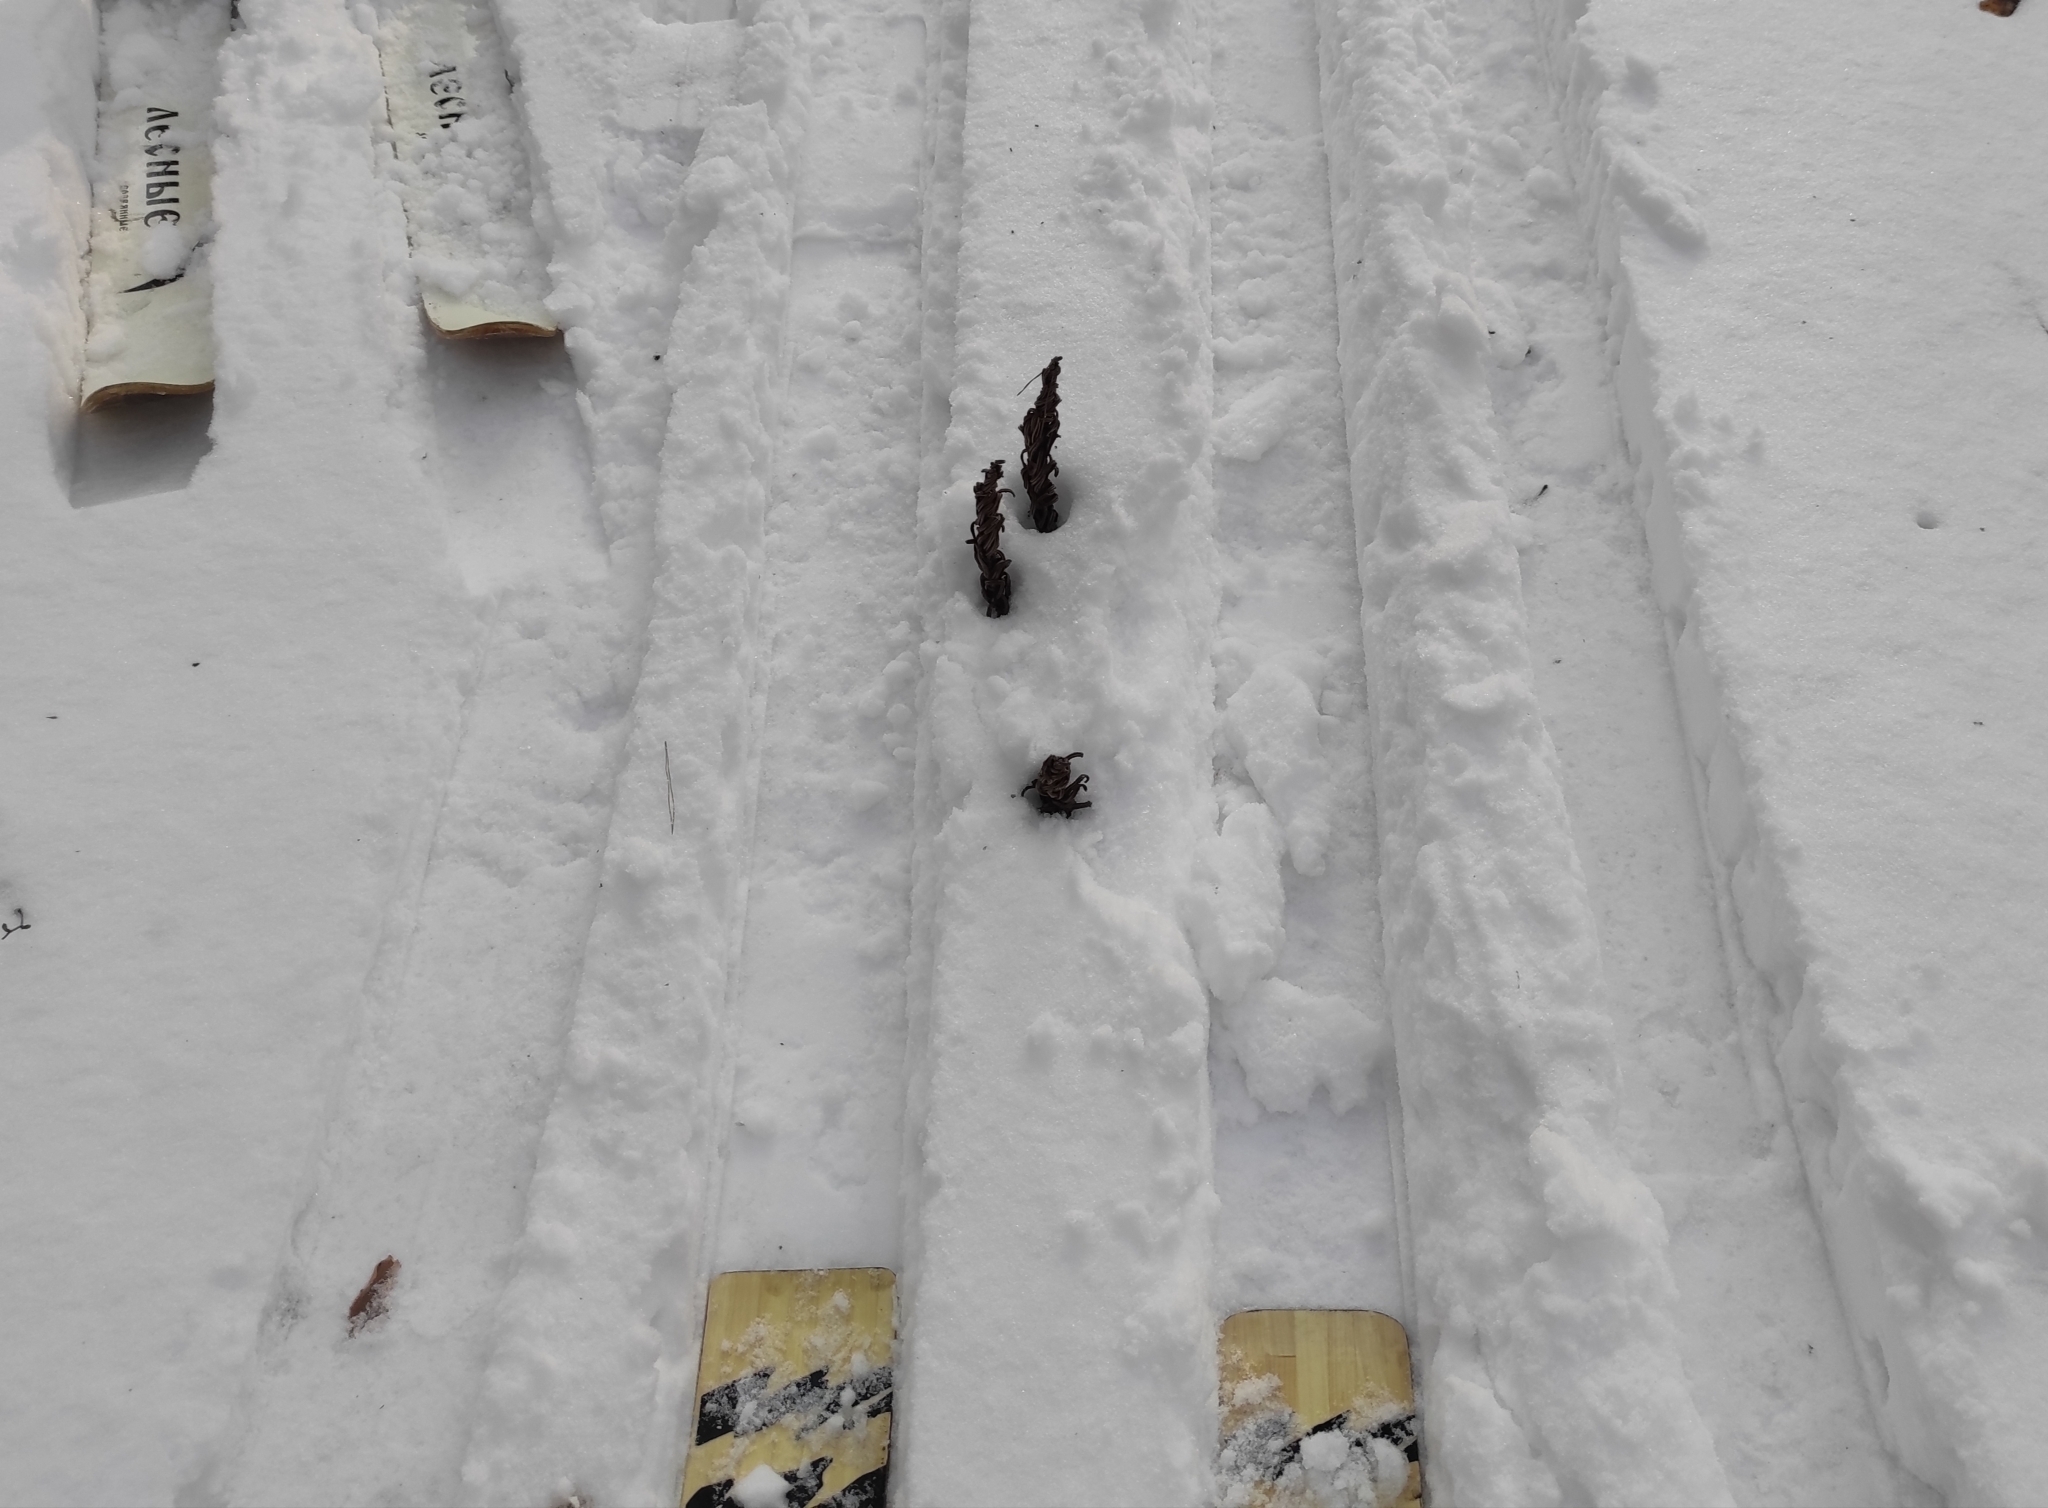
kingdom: Plantae
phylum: Tracheophyta
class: Polypodiopsida
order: Polypodiales
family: Onocleaceae
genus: Matteuccia
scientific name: Matteuccia struthiopteris
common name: Ostrich fern
